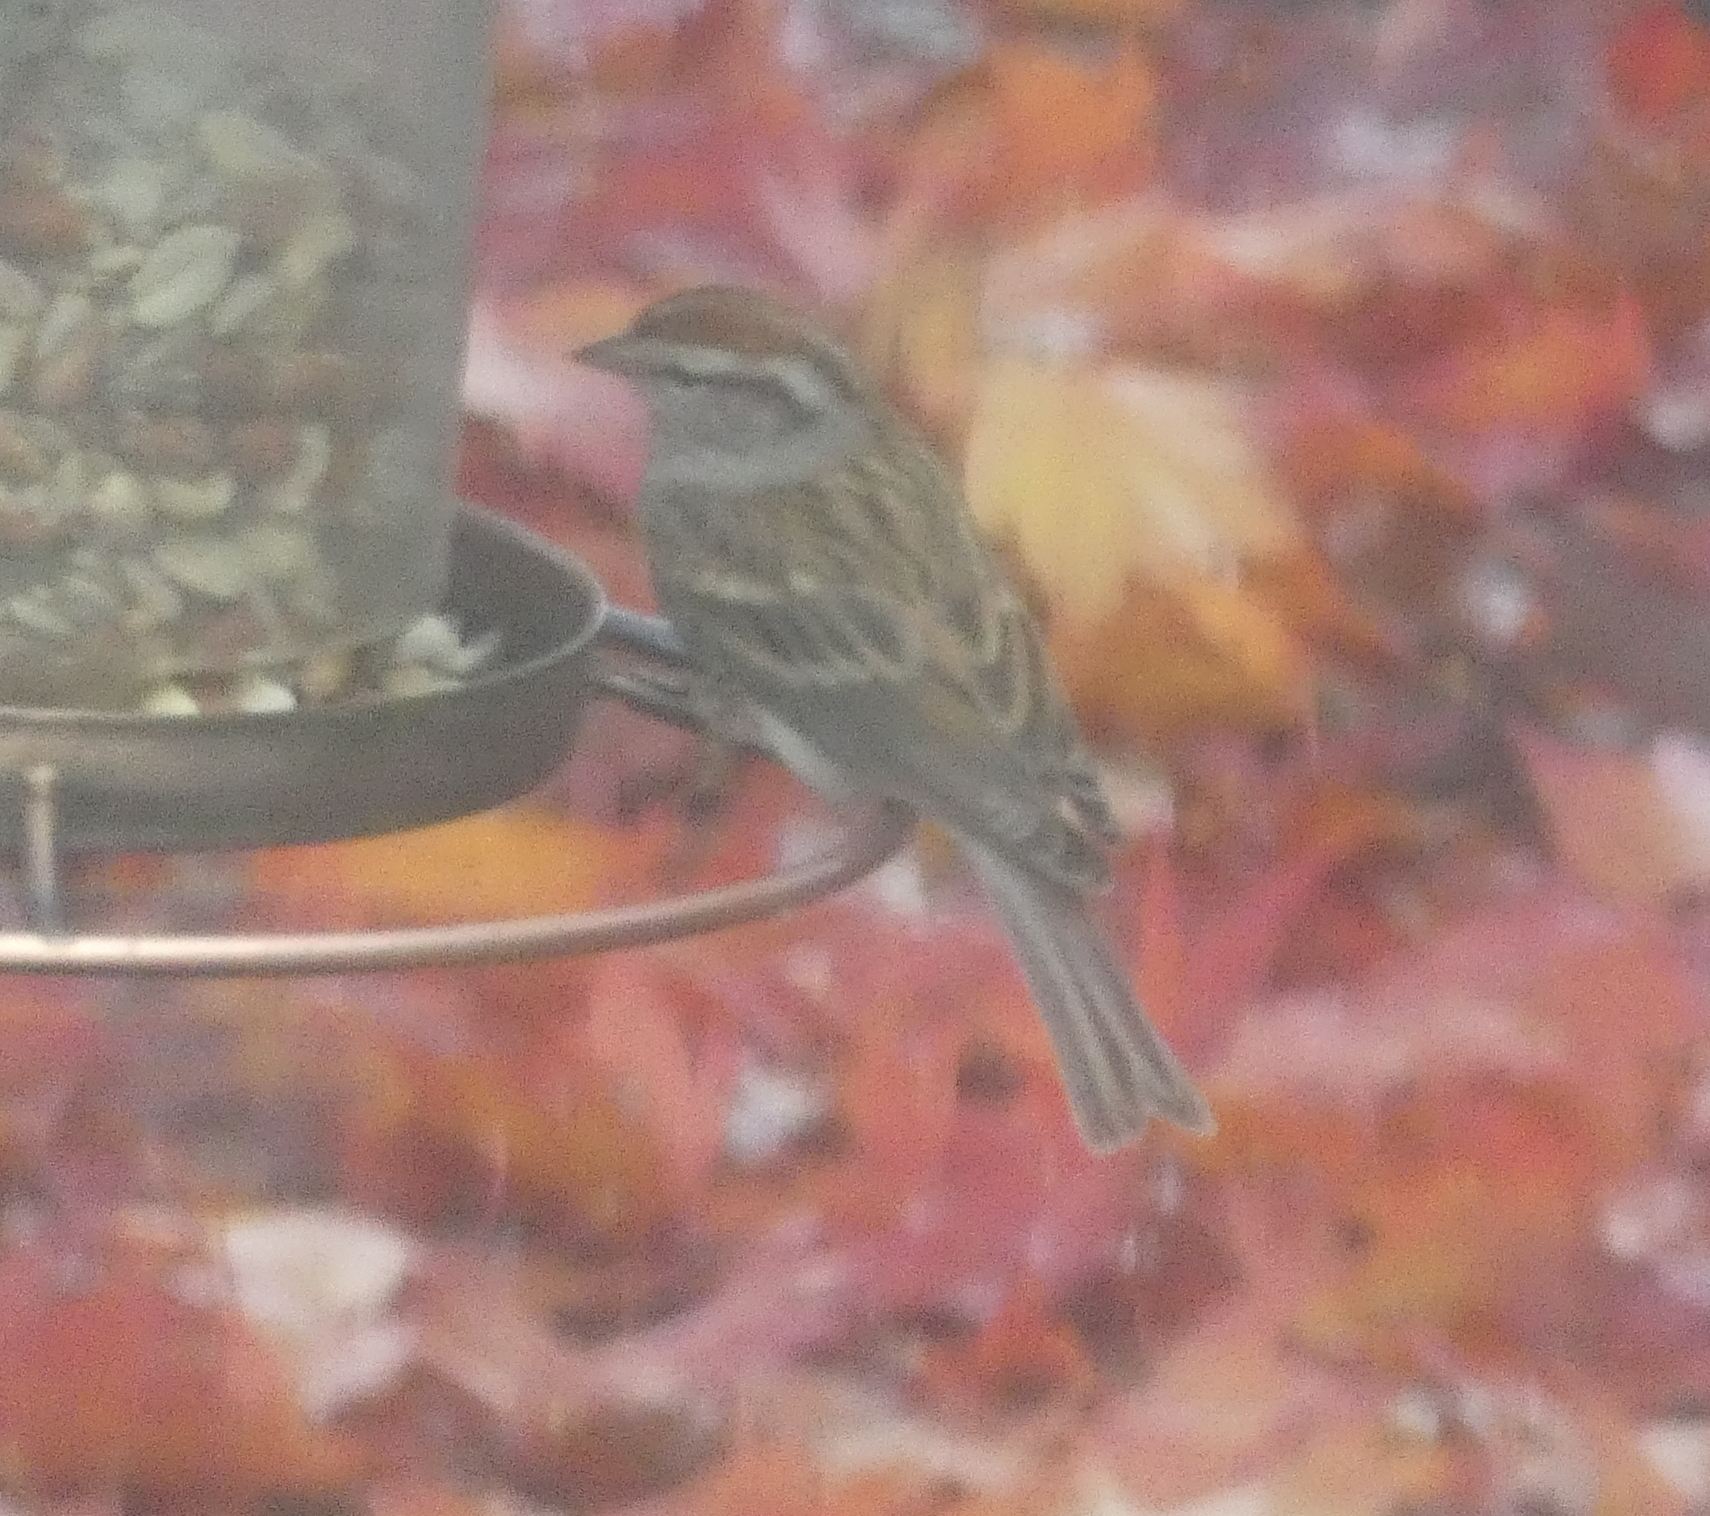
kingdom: Animalia
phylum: Chordata
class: Aves
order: Passeriformes
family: Passerellidae
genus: Spizella
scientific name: Spizella passerina
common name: Chipping sparrow
